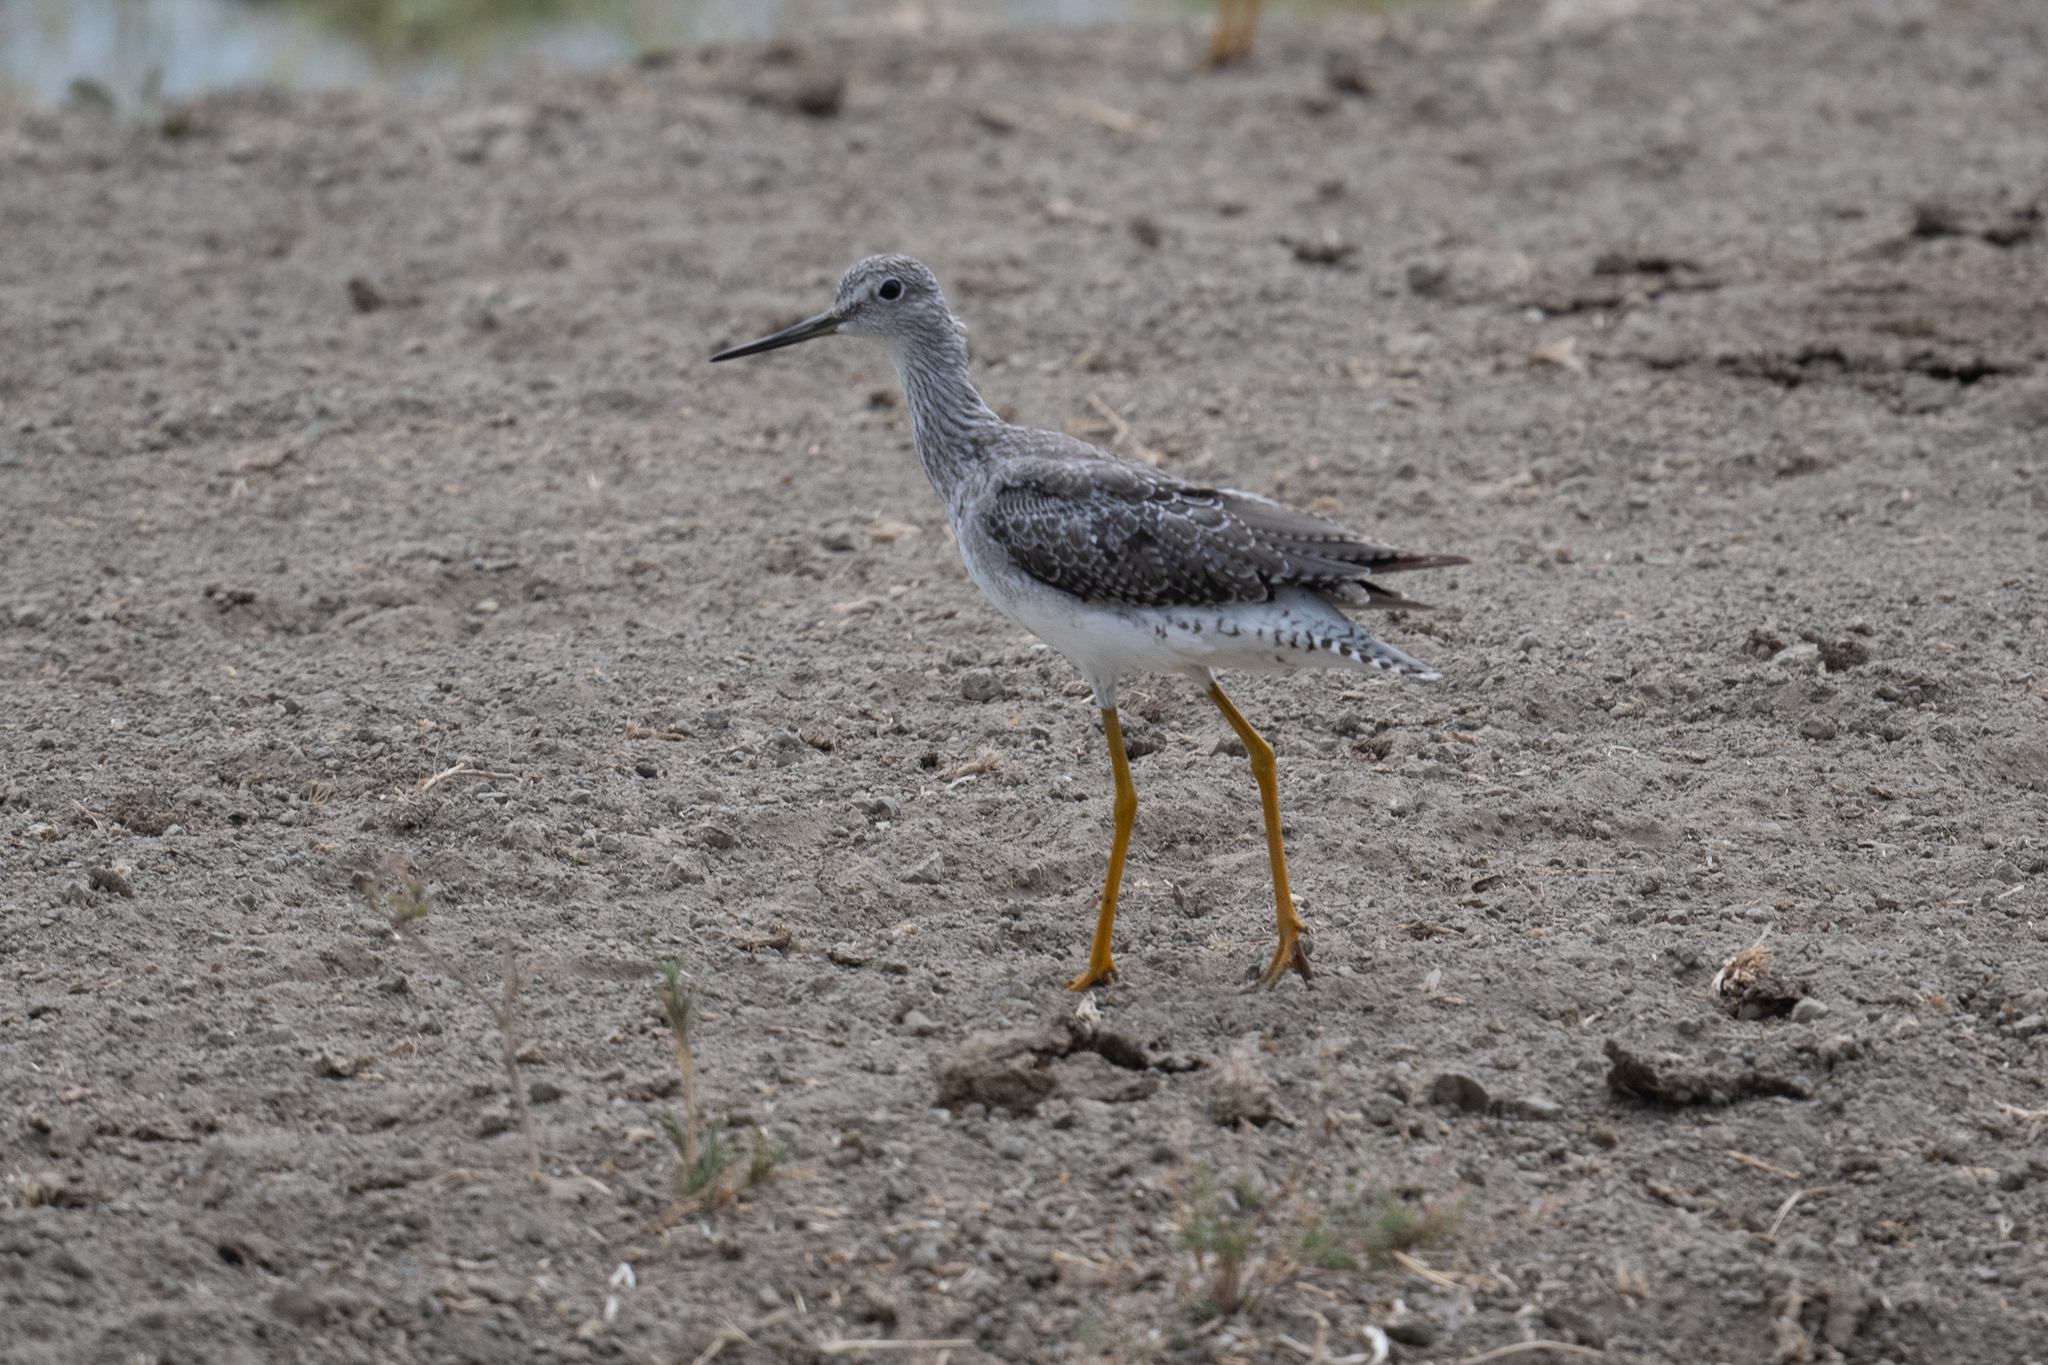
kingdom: Animalia
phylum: Chordata
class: Aves
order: Charadriiformes
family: Scolopacidae
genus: Tringa
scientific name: Tringa melanoleuca
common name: Greater yellowlegs
